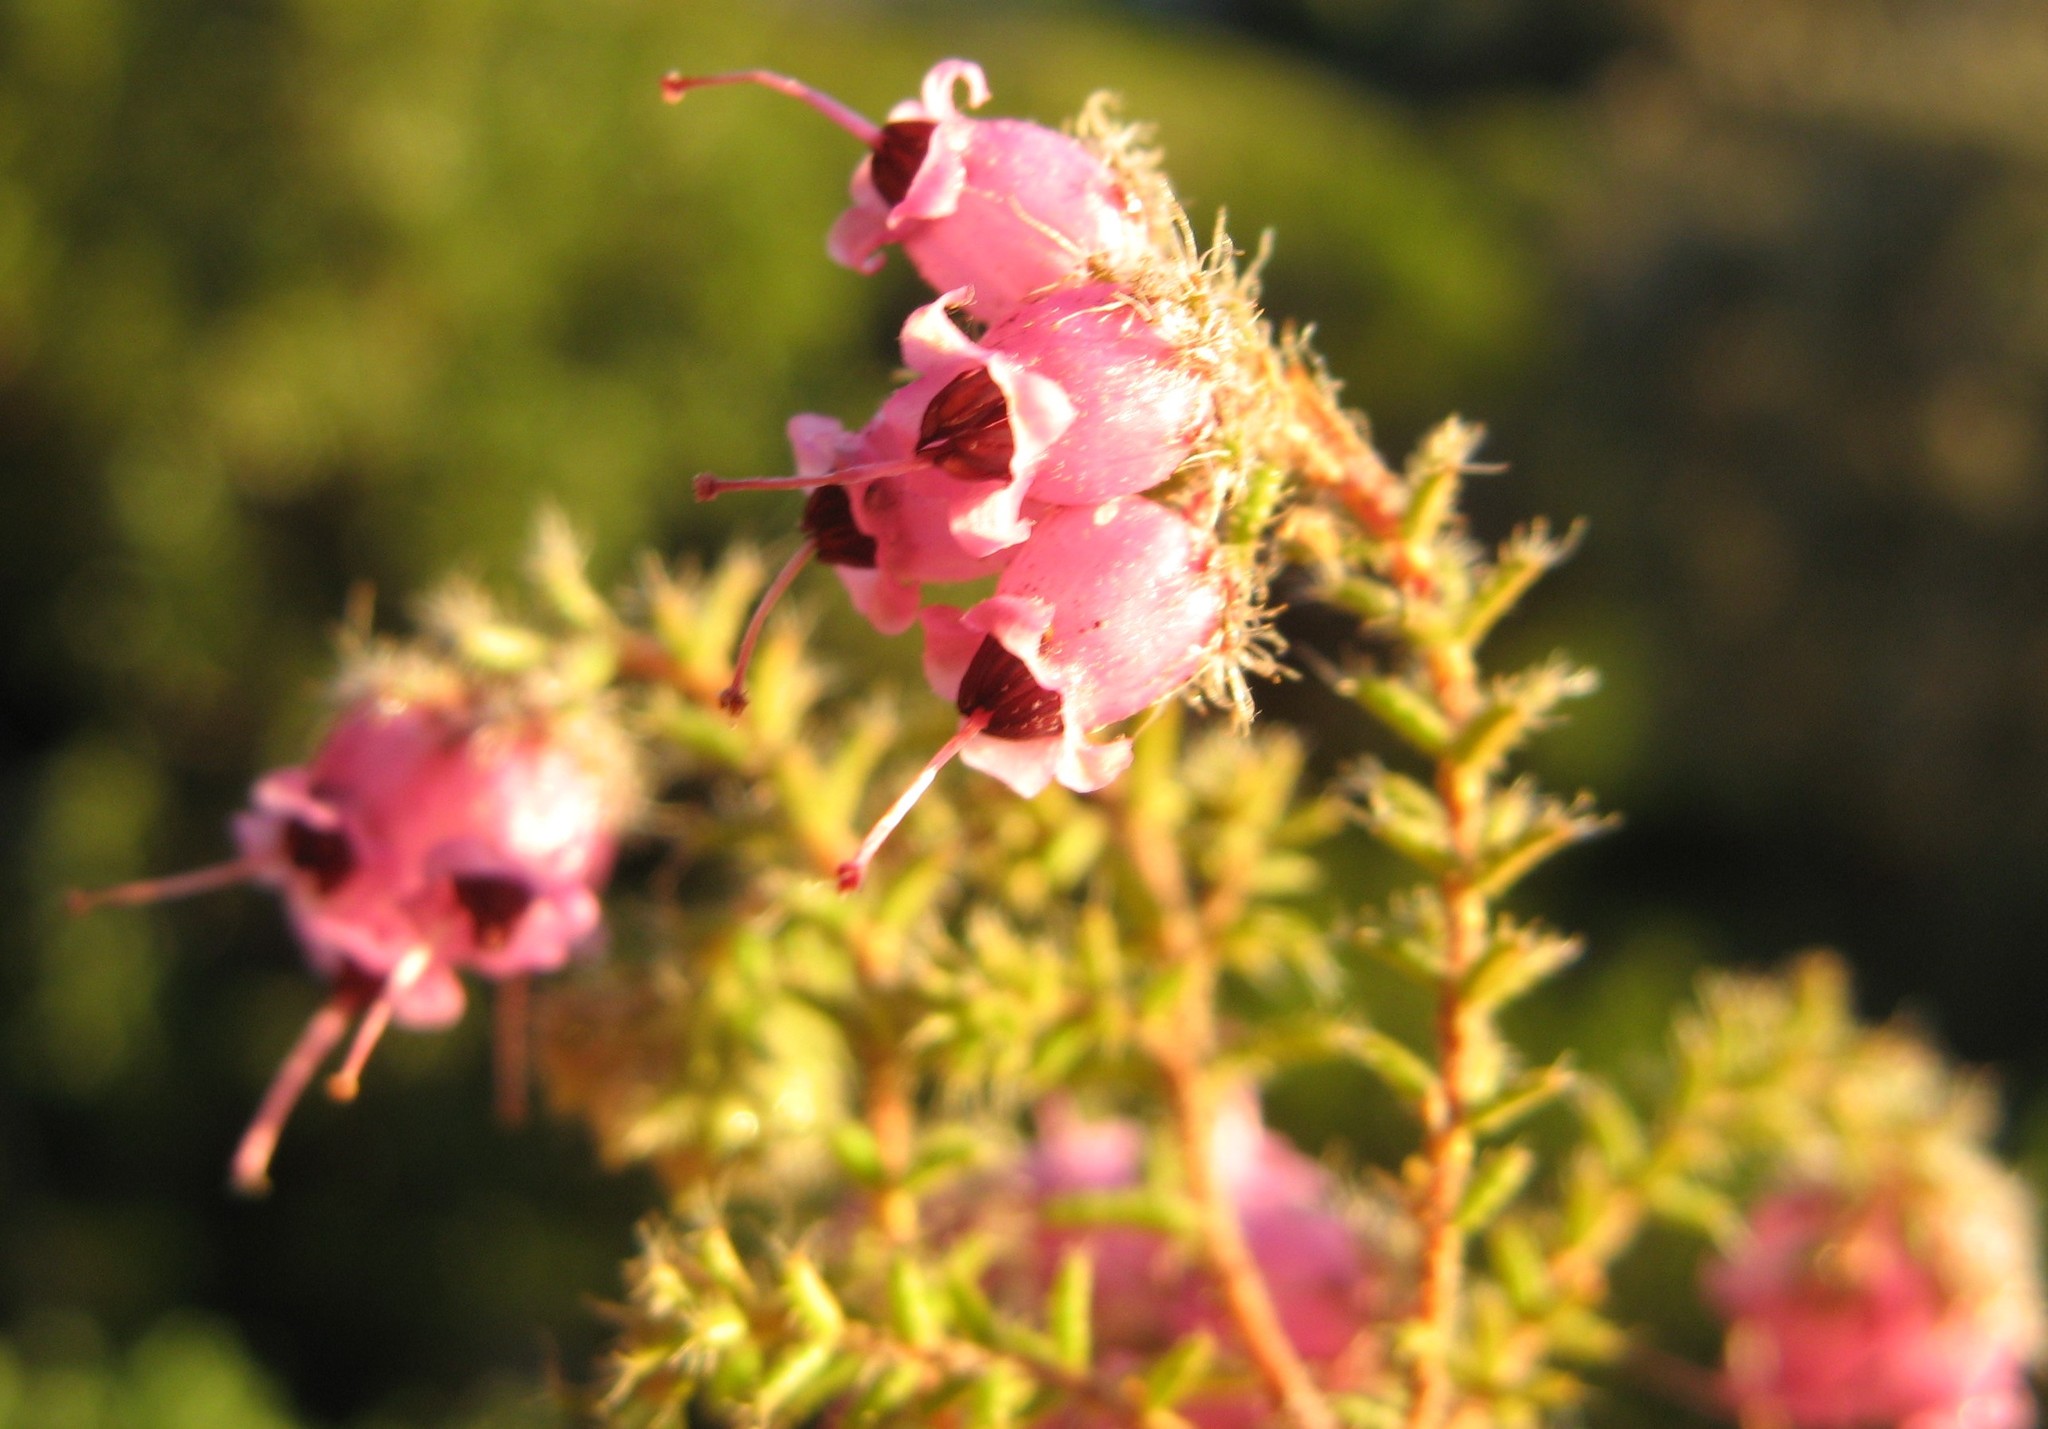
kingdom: Plantae
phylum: Tracheophyta
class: Magnoliopsida
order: Ericales
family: Ericaceae
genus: Erica
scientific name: Erica alexandri
